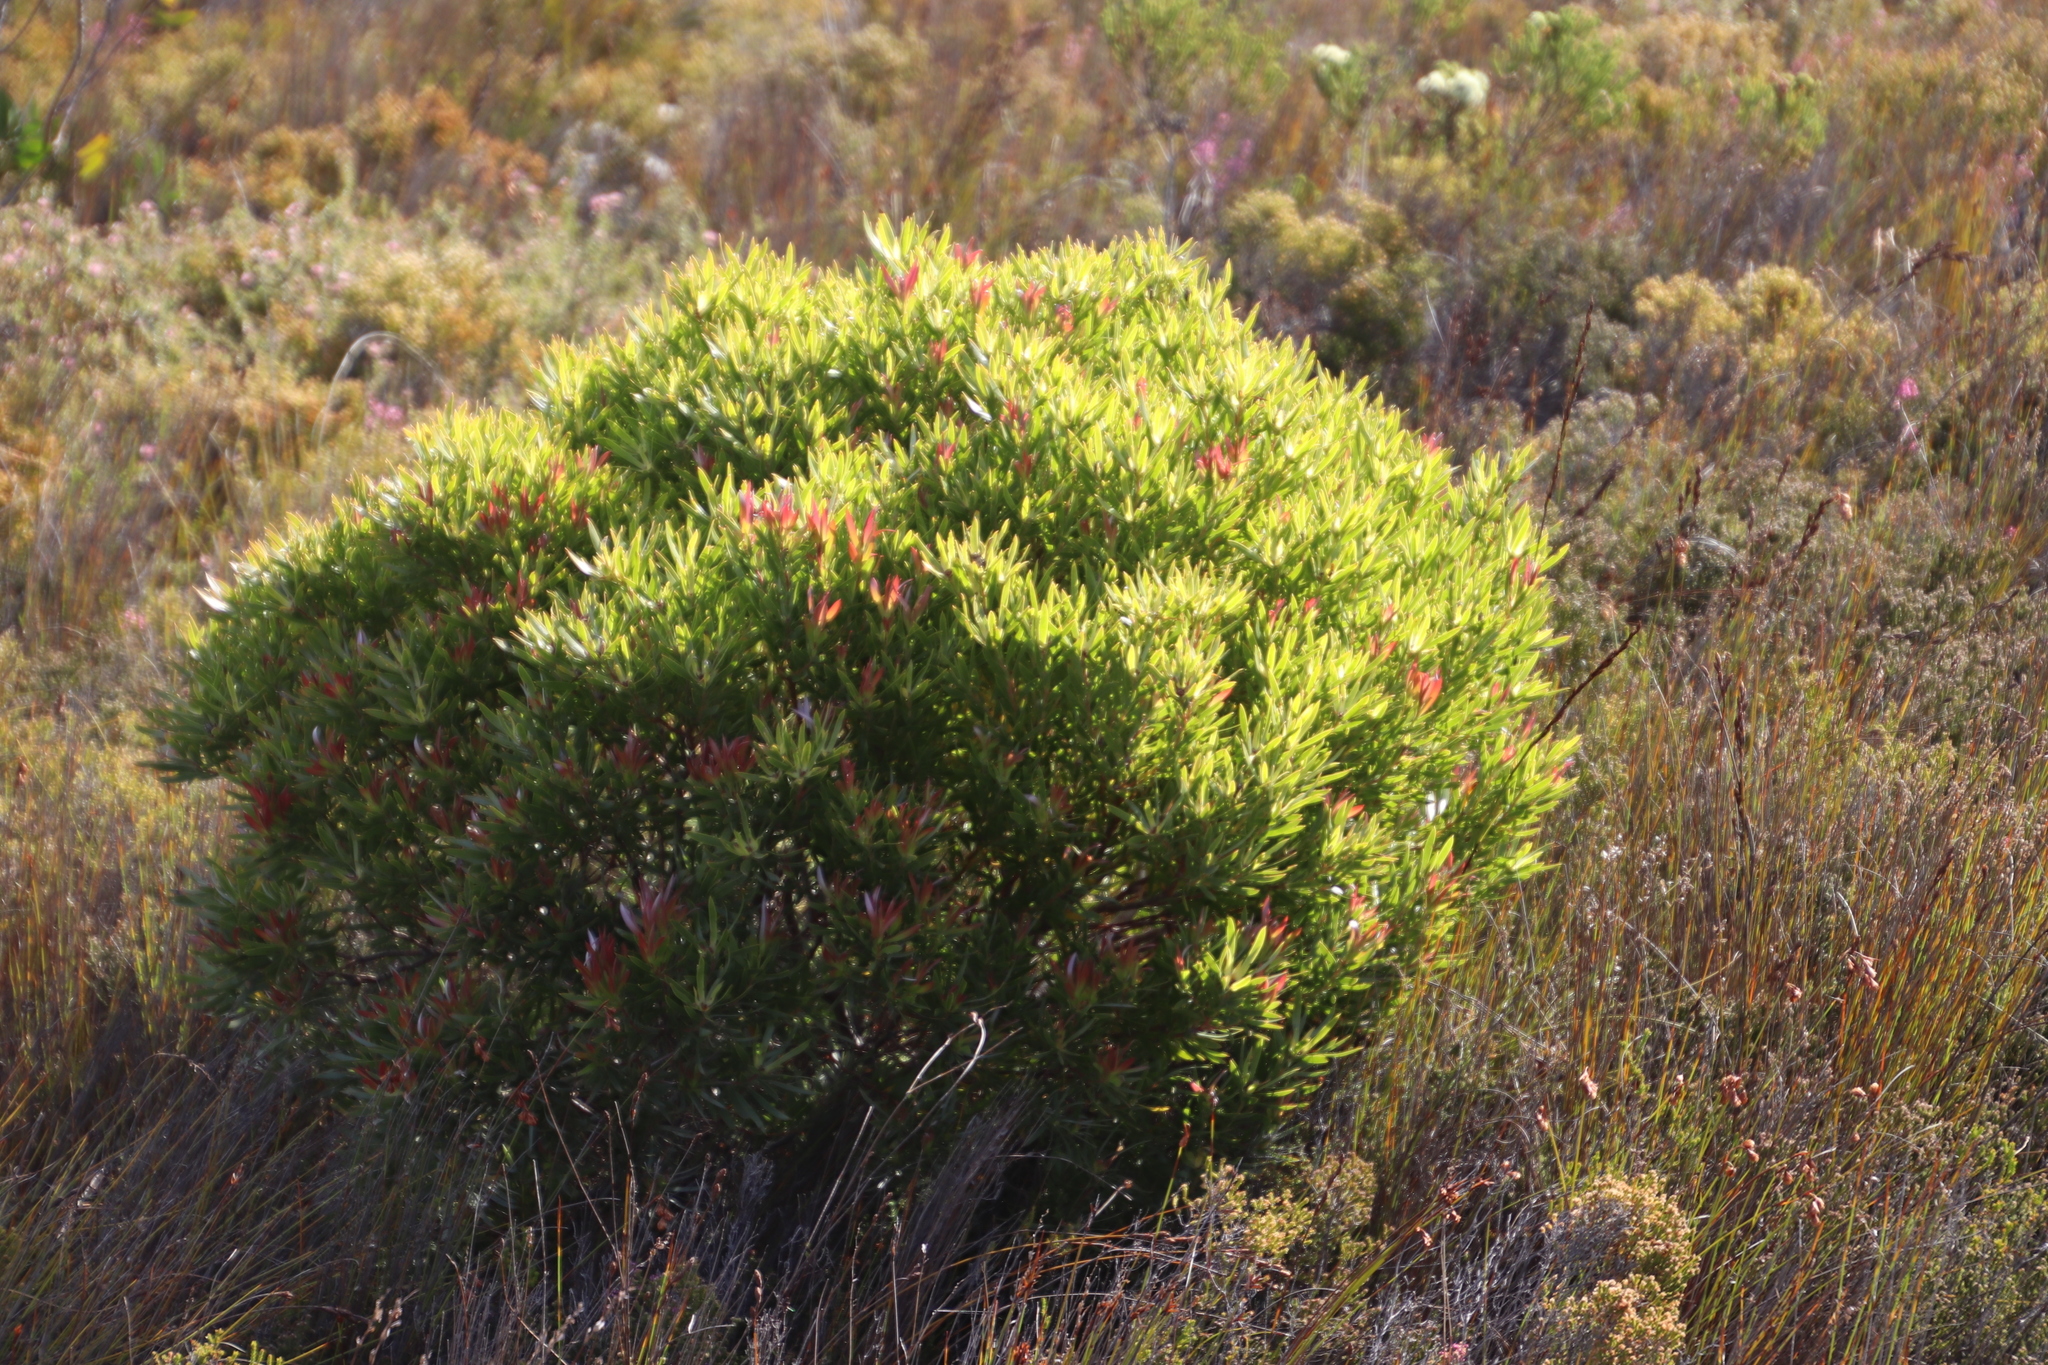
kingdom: Plantae
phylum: Tracheophyta
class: Magnoliopsida
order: Proteales
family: Proteaceae
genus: Leucadendron
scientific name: Leucadendron xanthoconus
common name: Sickle-leaf conebush
